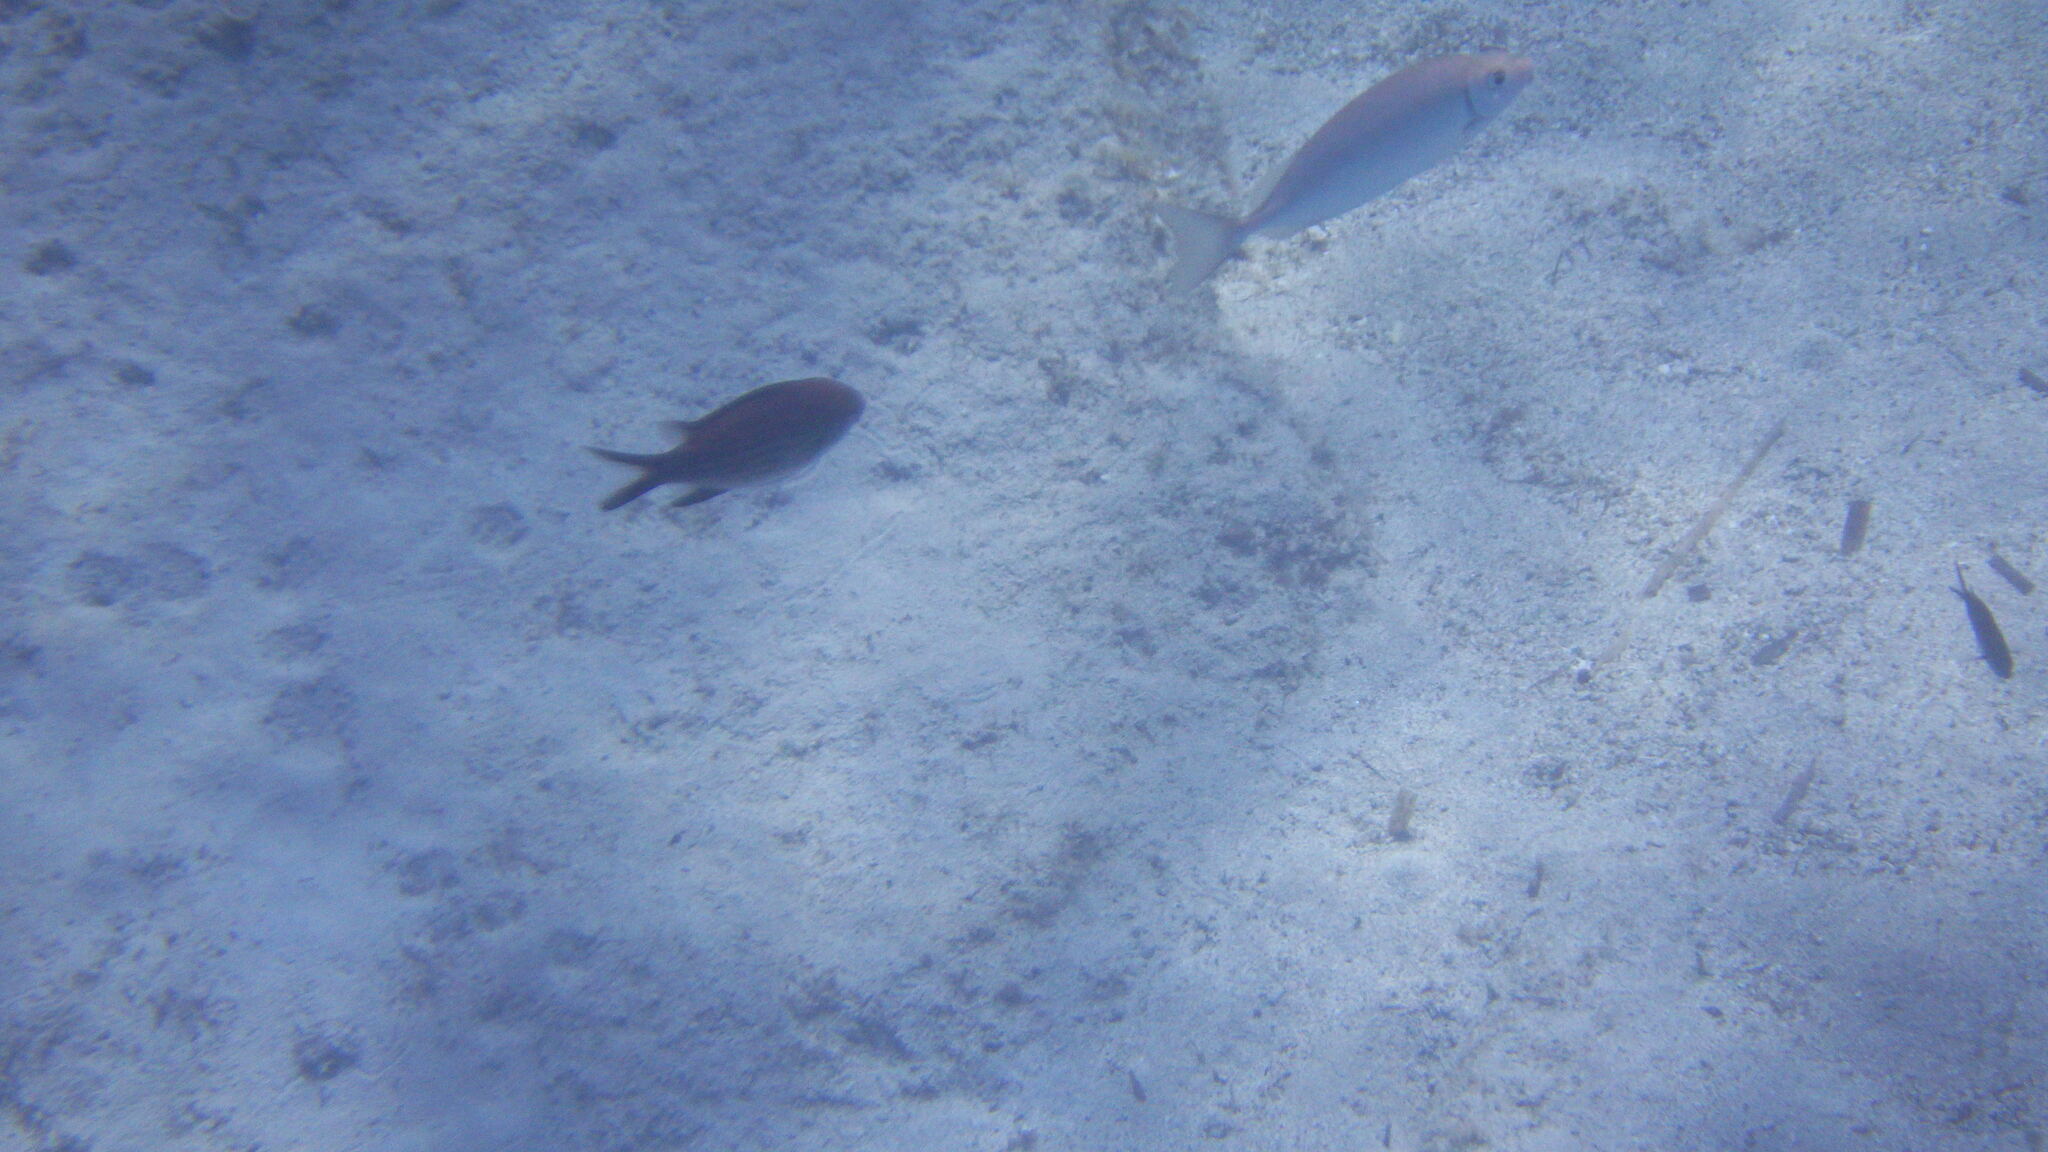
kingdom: Animalia
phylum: Chordata
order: Perciformes
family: Pomacentridae
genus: Chromis
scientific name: Chromis chromis
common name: Damselfish
